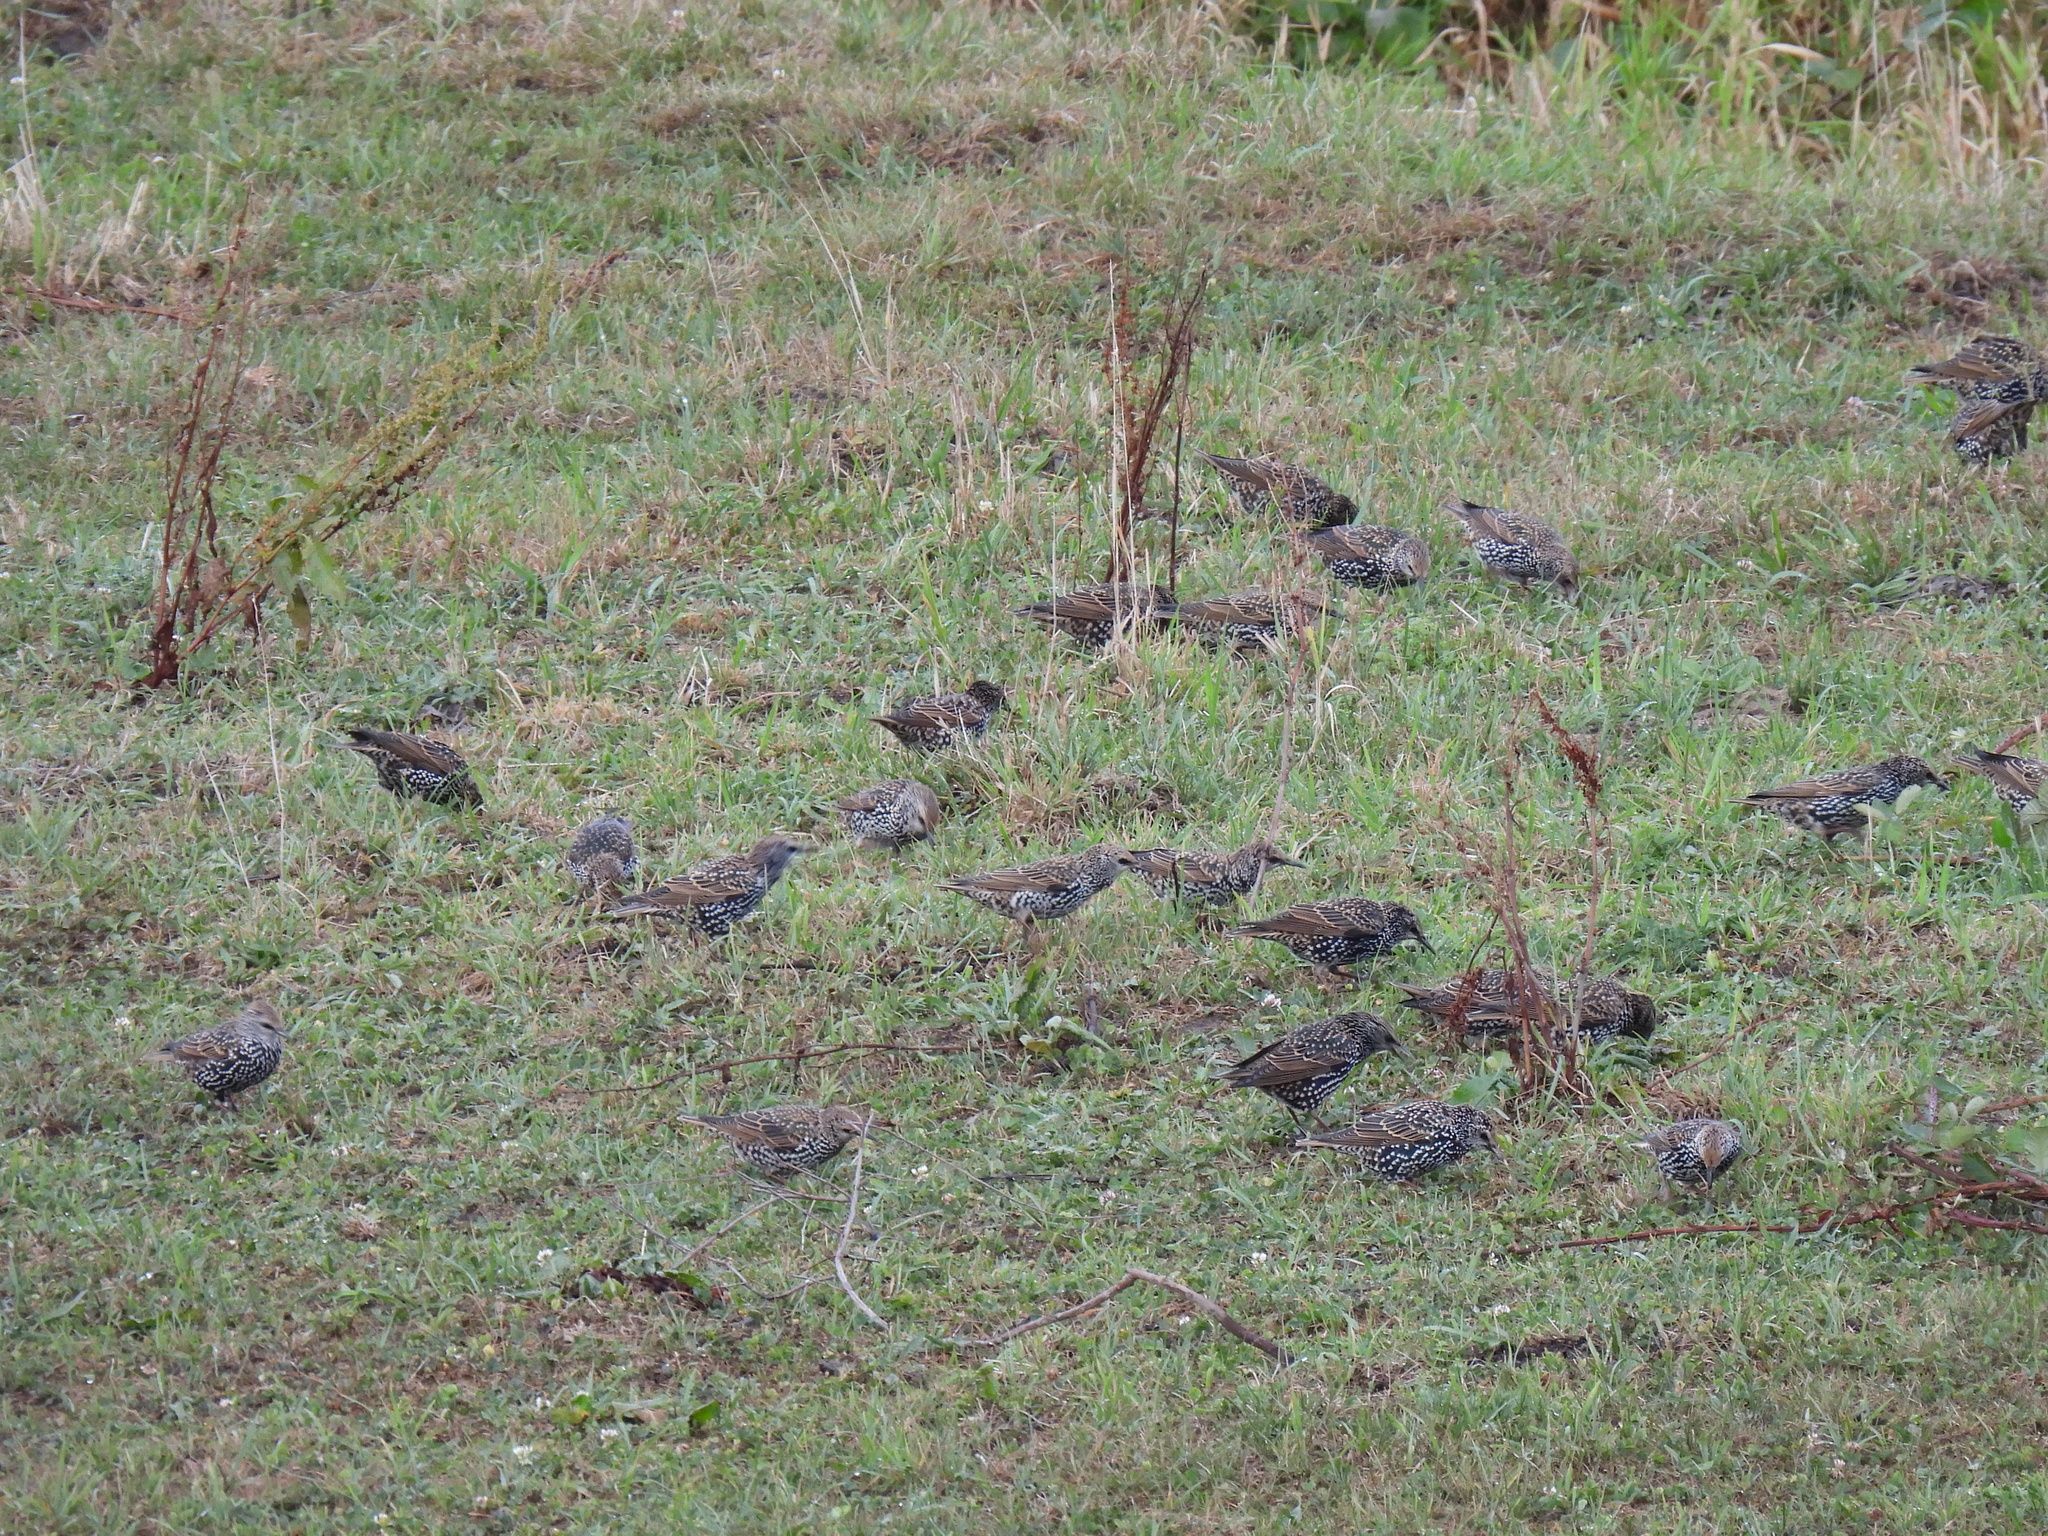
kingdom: Animalia
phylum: Chordata
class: Aves
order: Passeriformes
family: Sturnidae
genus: Sturnus
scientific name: Sturnus vulgaris
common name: Common starling
